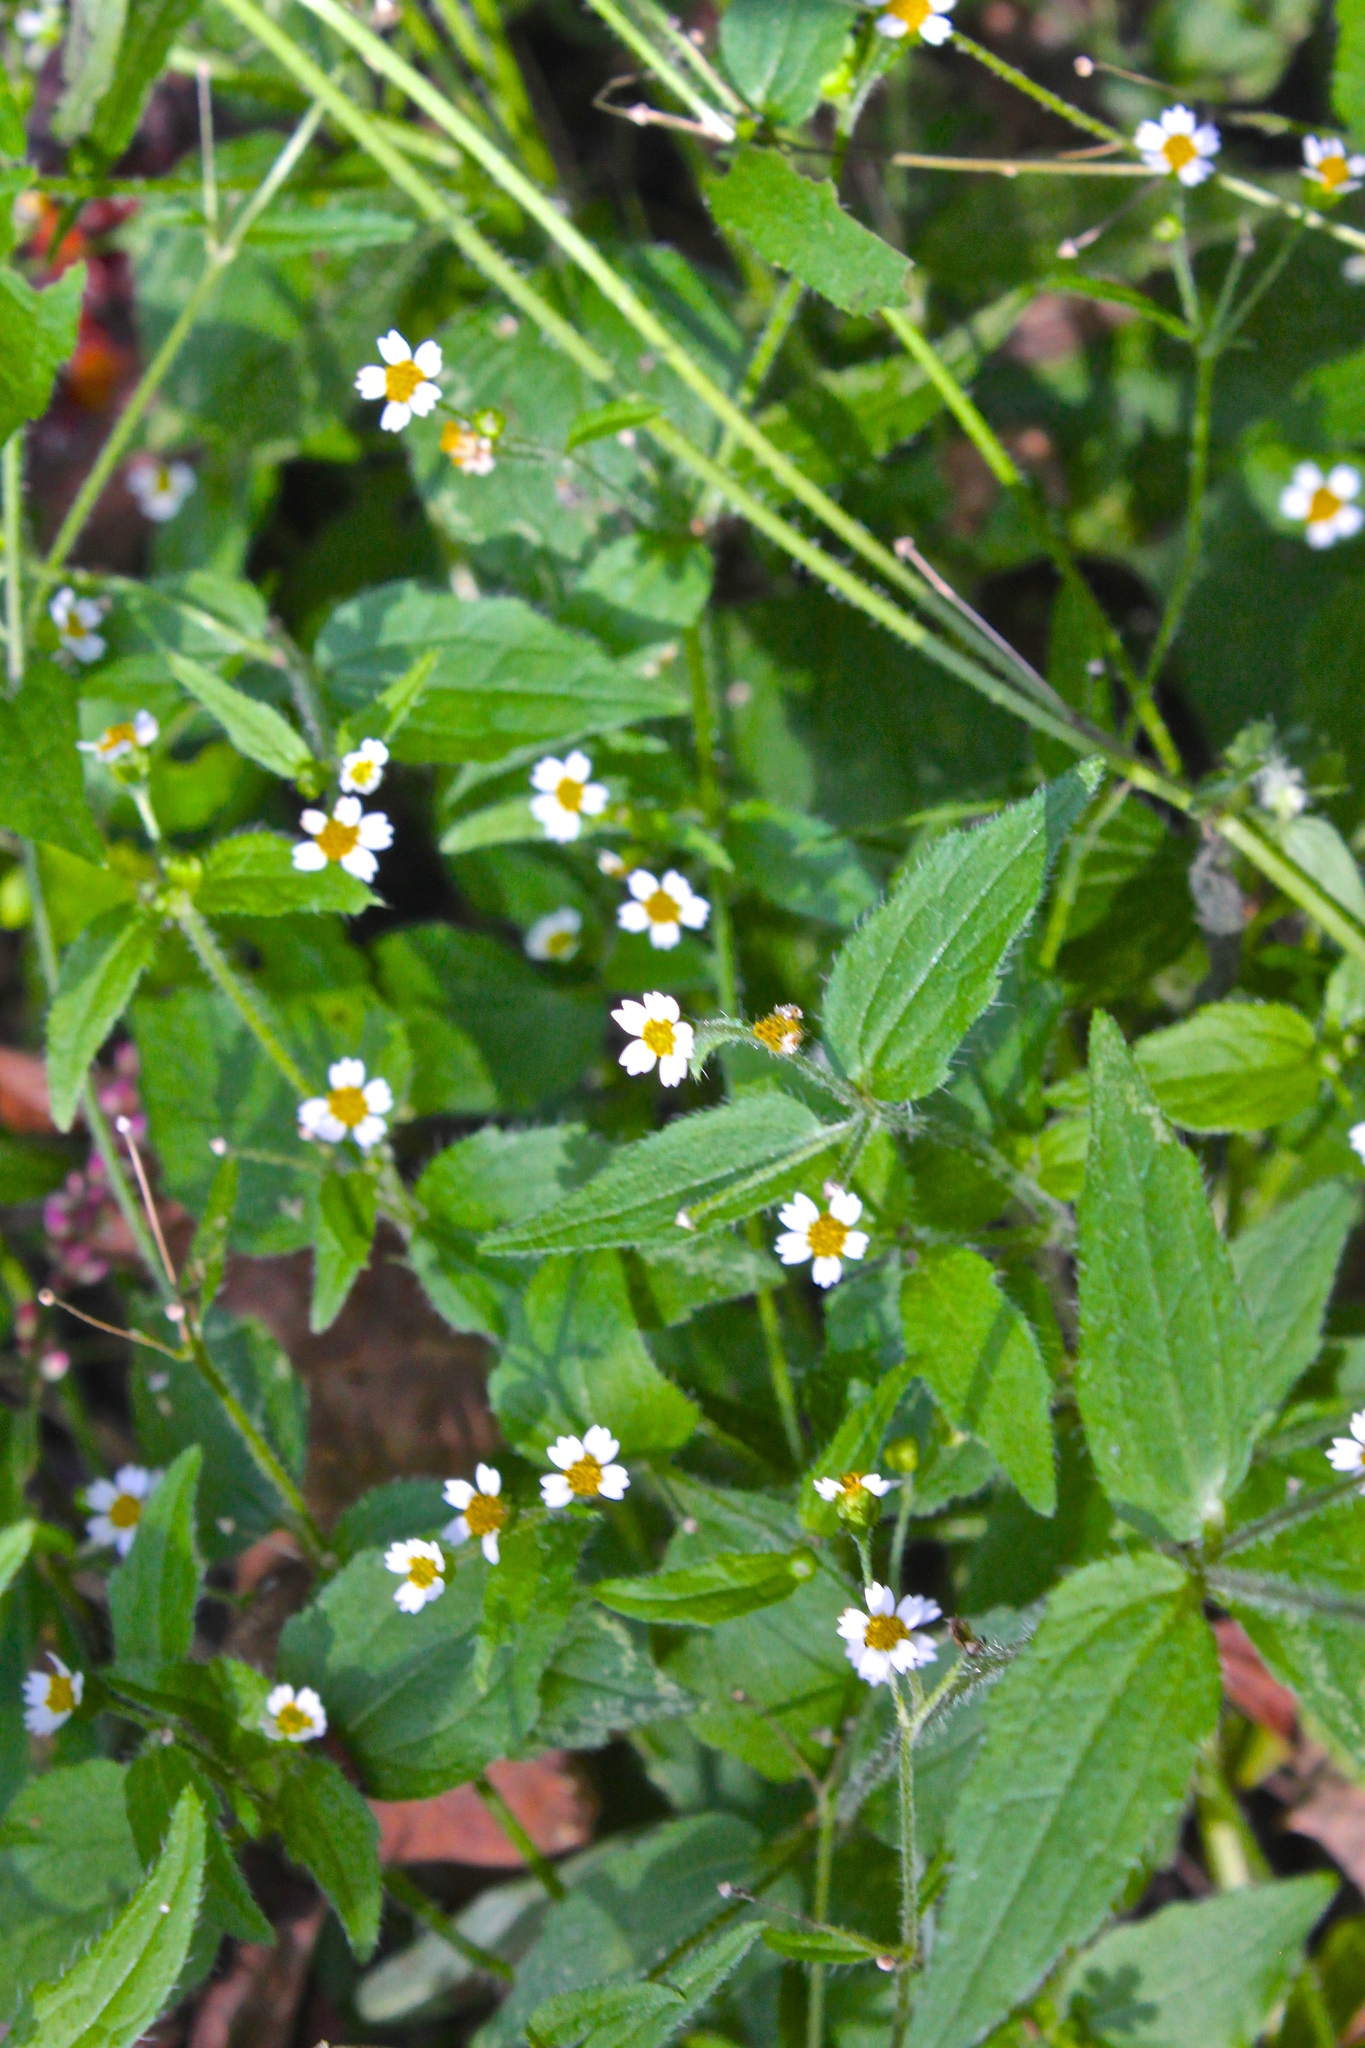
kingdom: Plantae
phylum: Tracheophyta
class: Magnoliopsida
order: Asterales
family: Asteraceae
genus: Galinsoga
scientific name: Galinsoga quadriradiata
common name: Shaggy soldier
